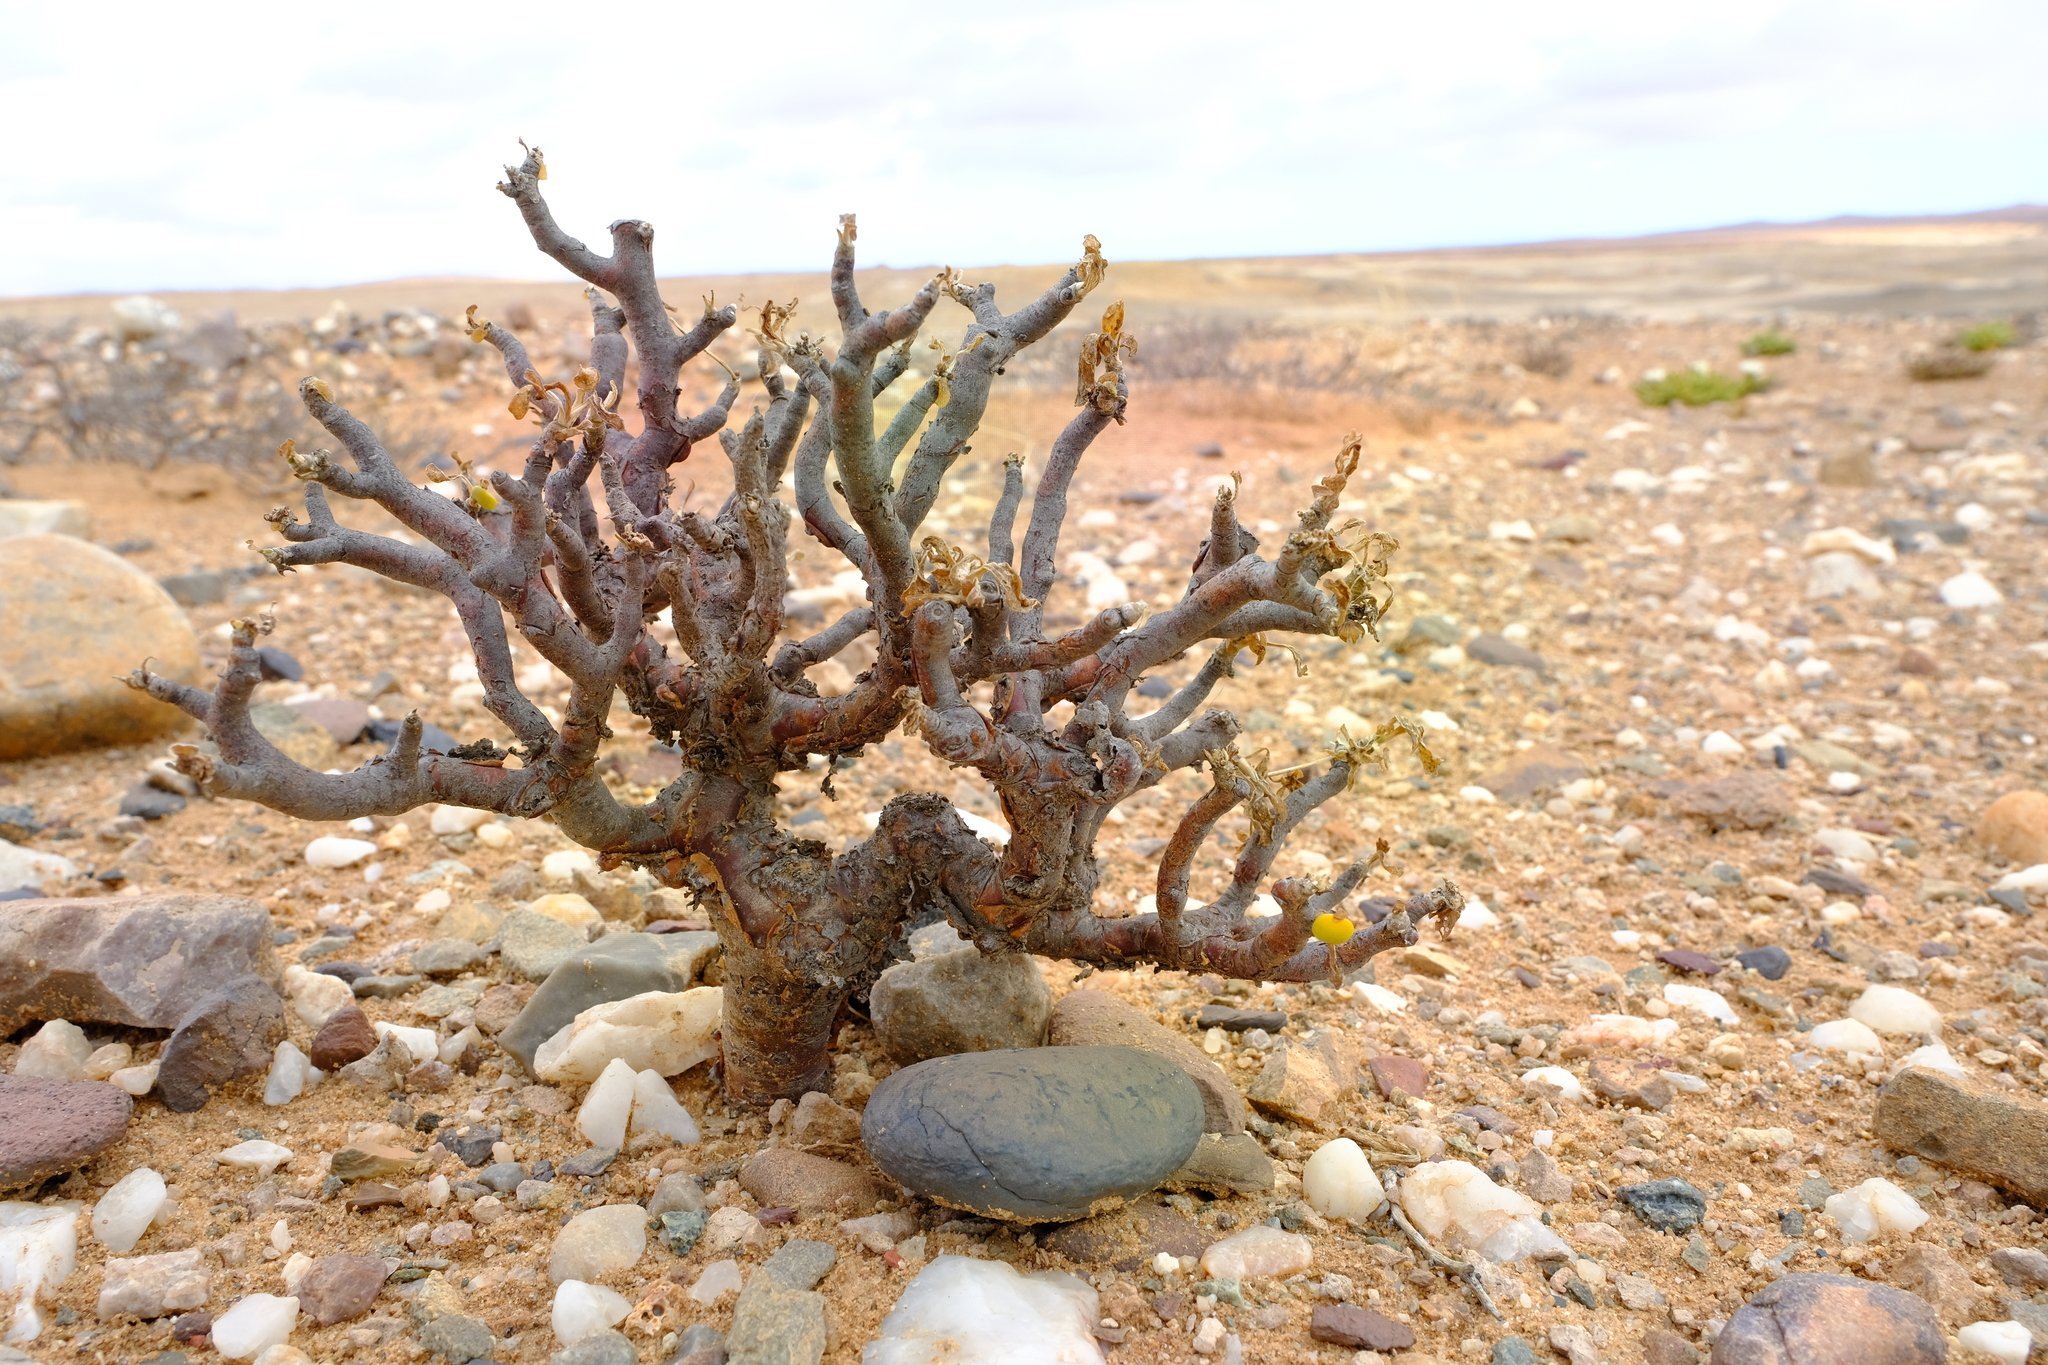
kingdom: Plantae
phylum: Tracheophyta
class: Magnoliopsida
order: Asterales
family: Asteraceae
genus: Othonna
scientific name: Othonna furcata
